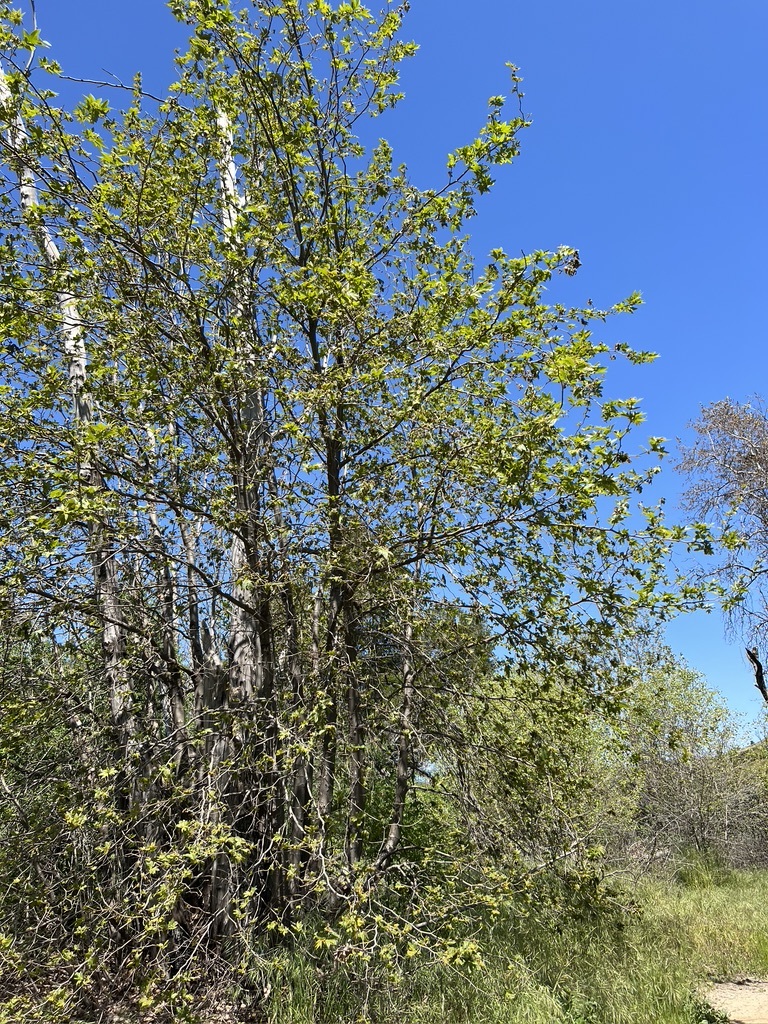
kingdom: Plantae
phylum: Tracheophyta
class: Magnoliopsida
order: Proteales
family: Platanaceae
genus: Platanus
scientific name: Platanus racemosa
